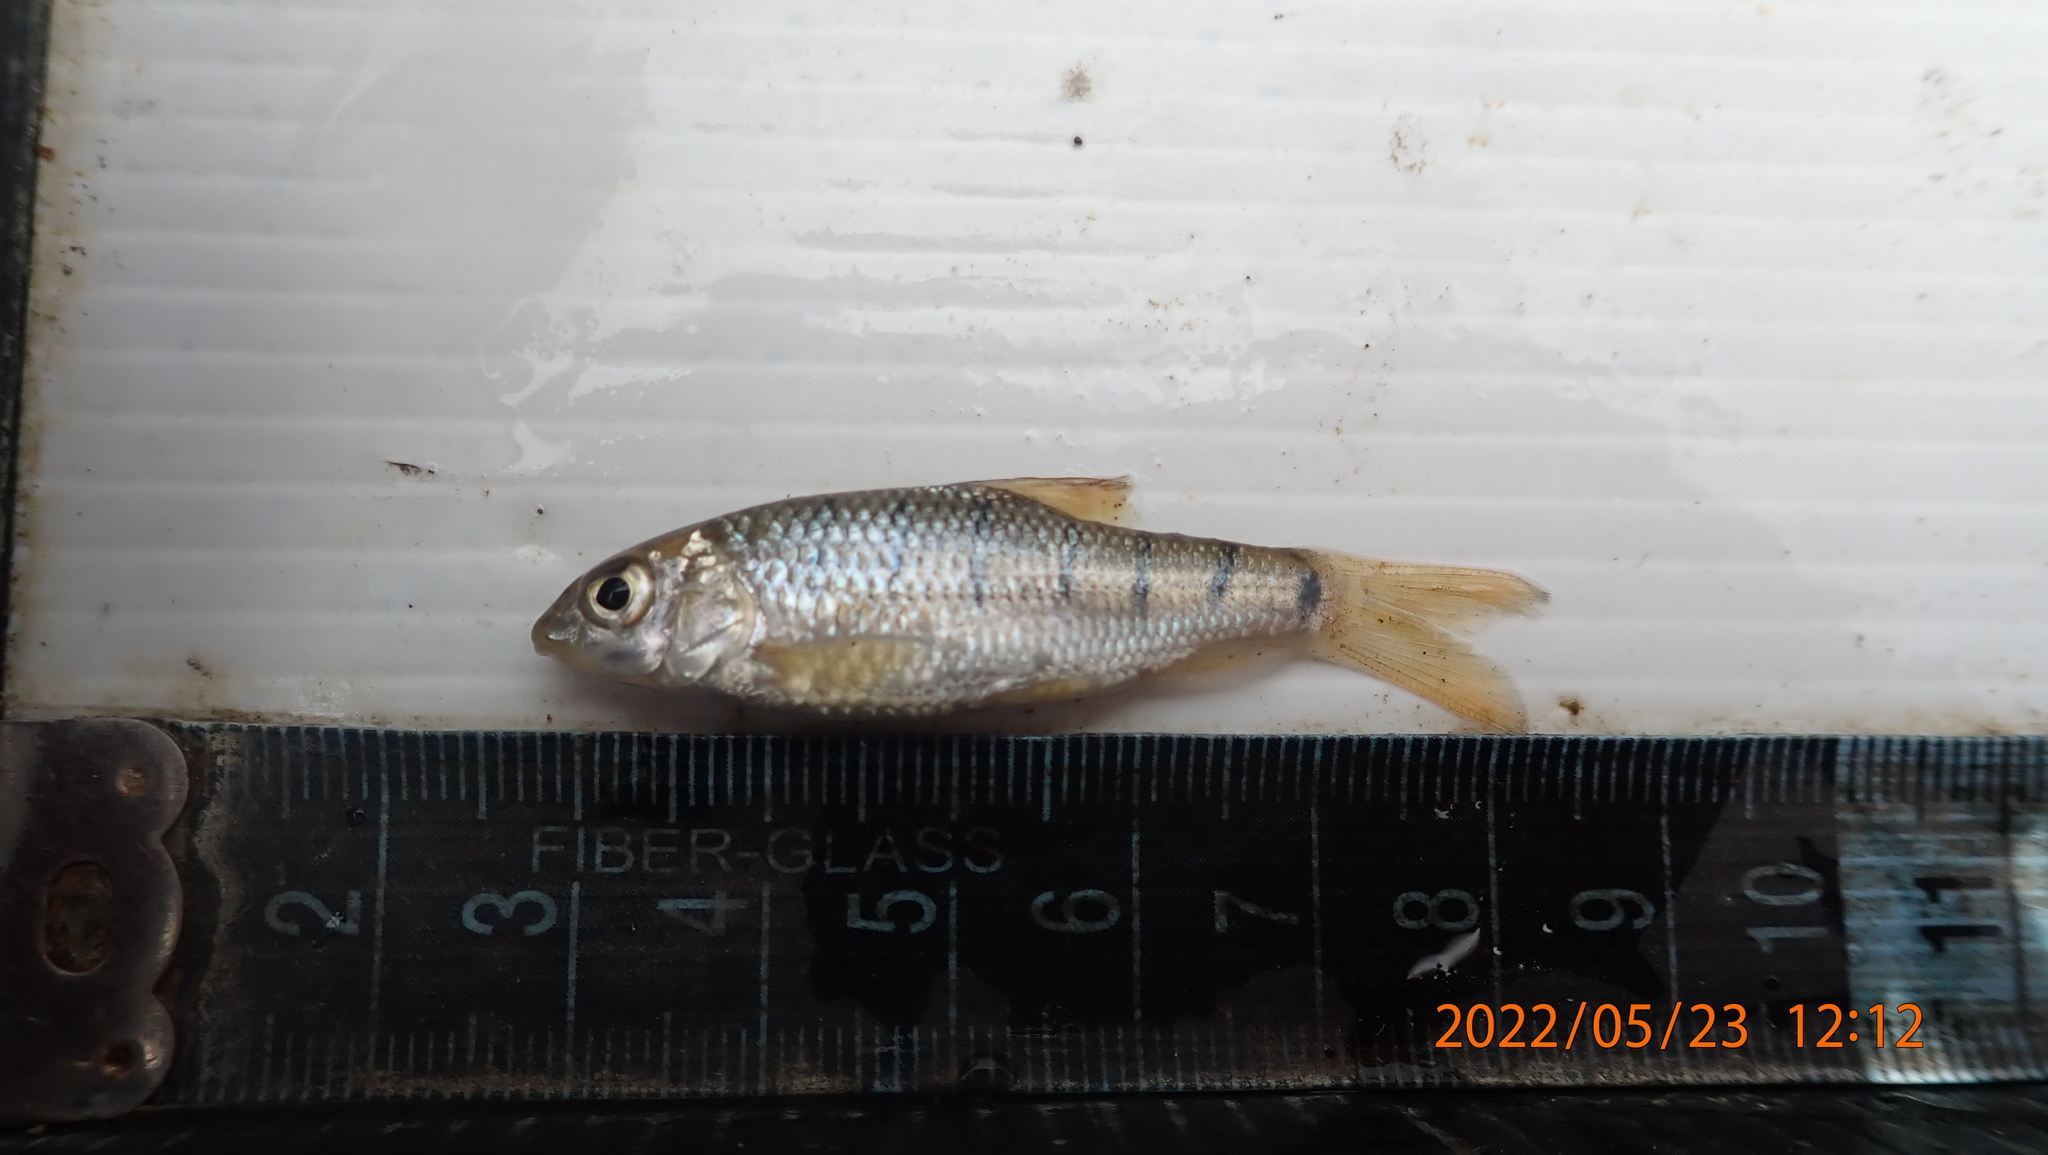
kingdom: Animalia
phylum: Chordata
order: Cypriniformes
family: Cyprinidae
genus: Acrossocheilus
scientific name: Acrossocheilus paradoxus
